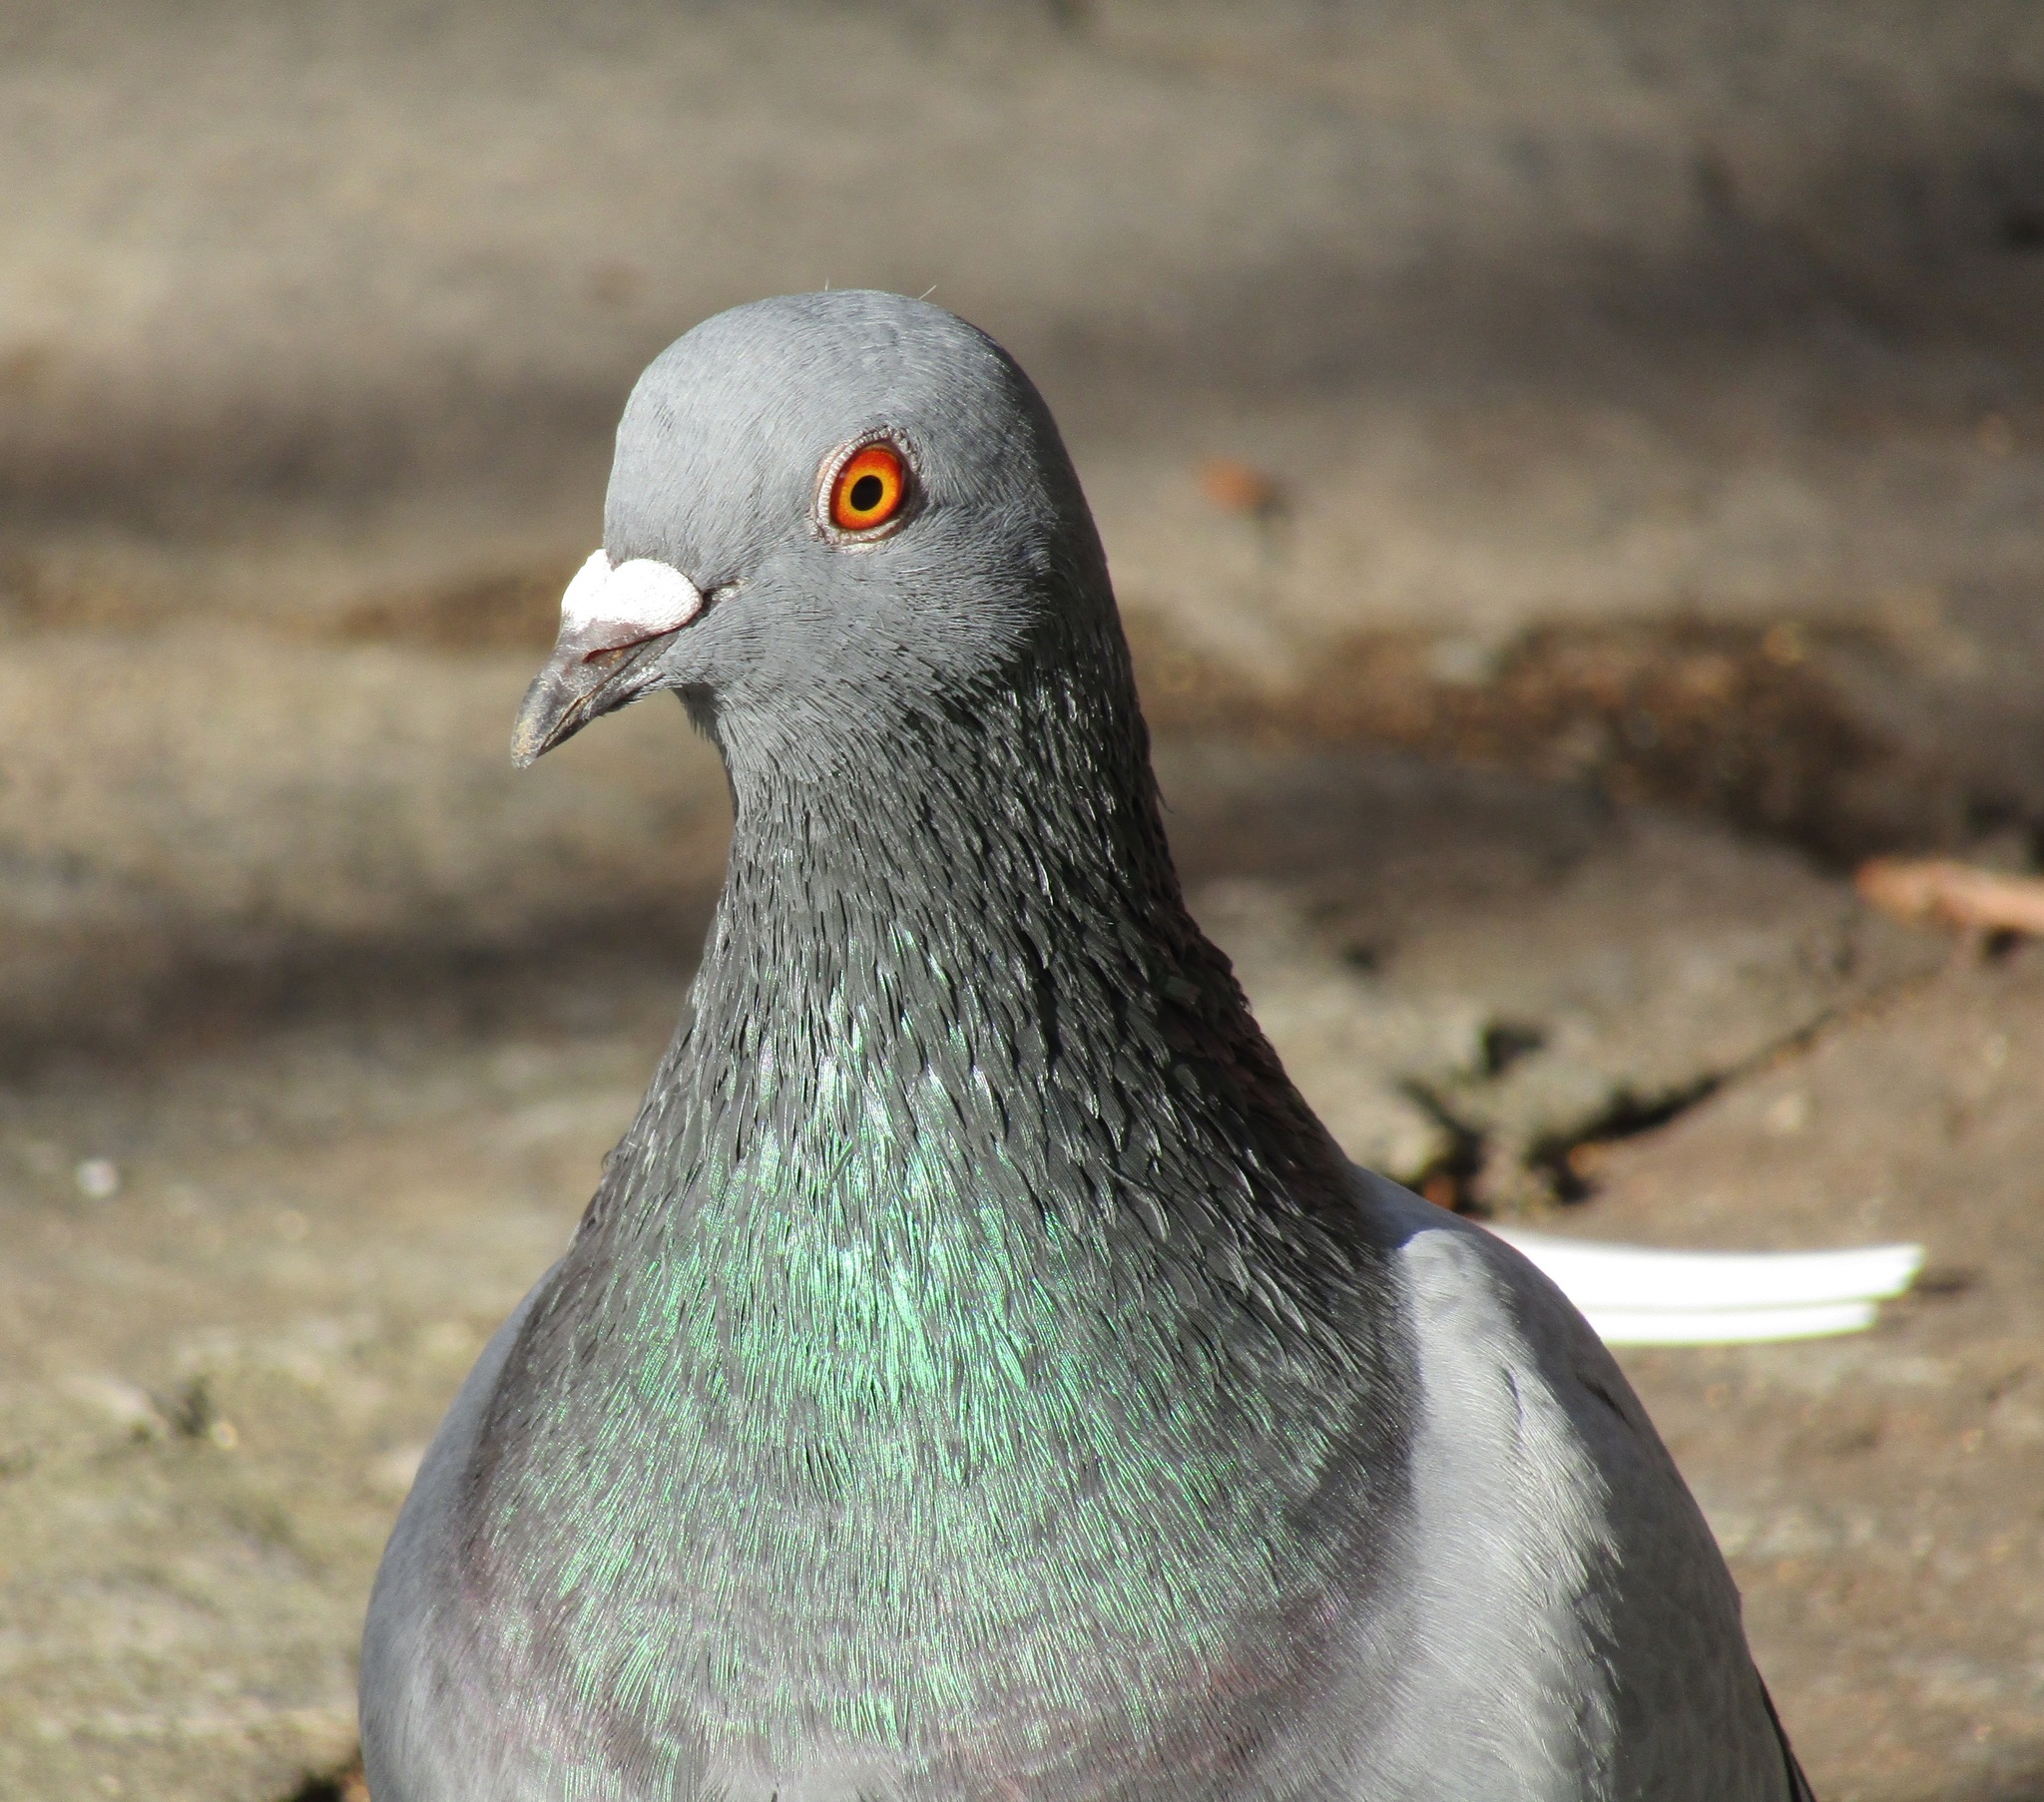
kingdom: Animalia
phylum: Chordata
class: Aves
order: Columbiformes
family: Columbidae
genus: Columba
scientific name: Columba livia
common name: Rock pigeon
